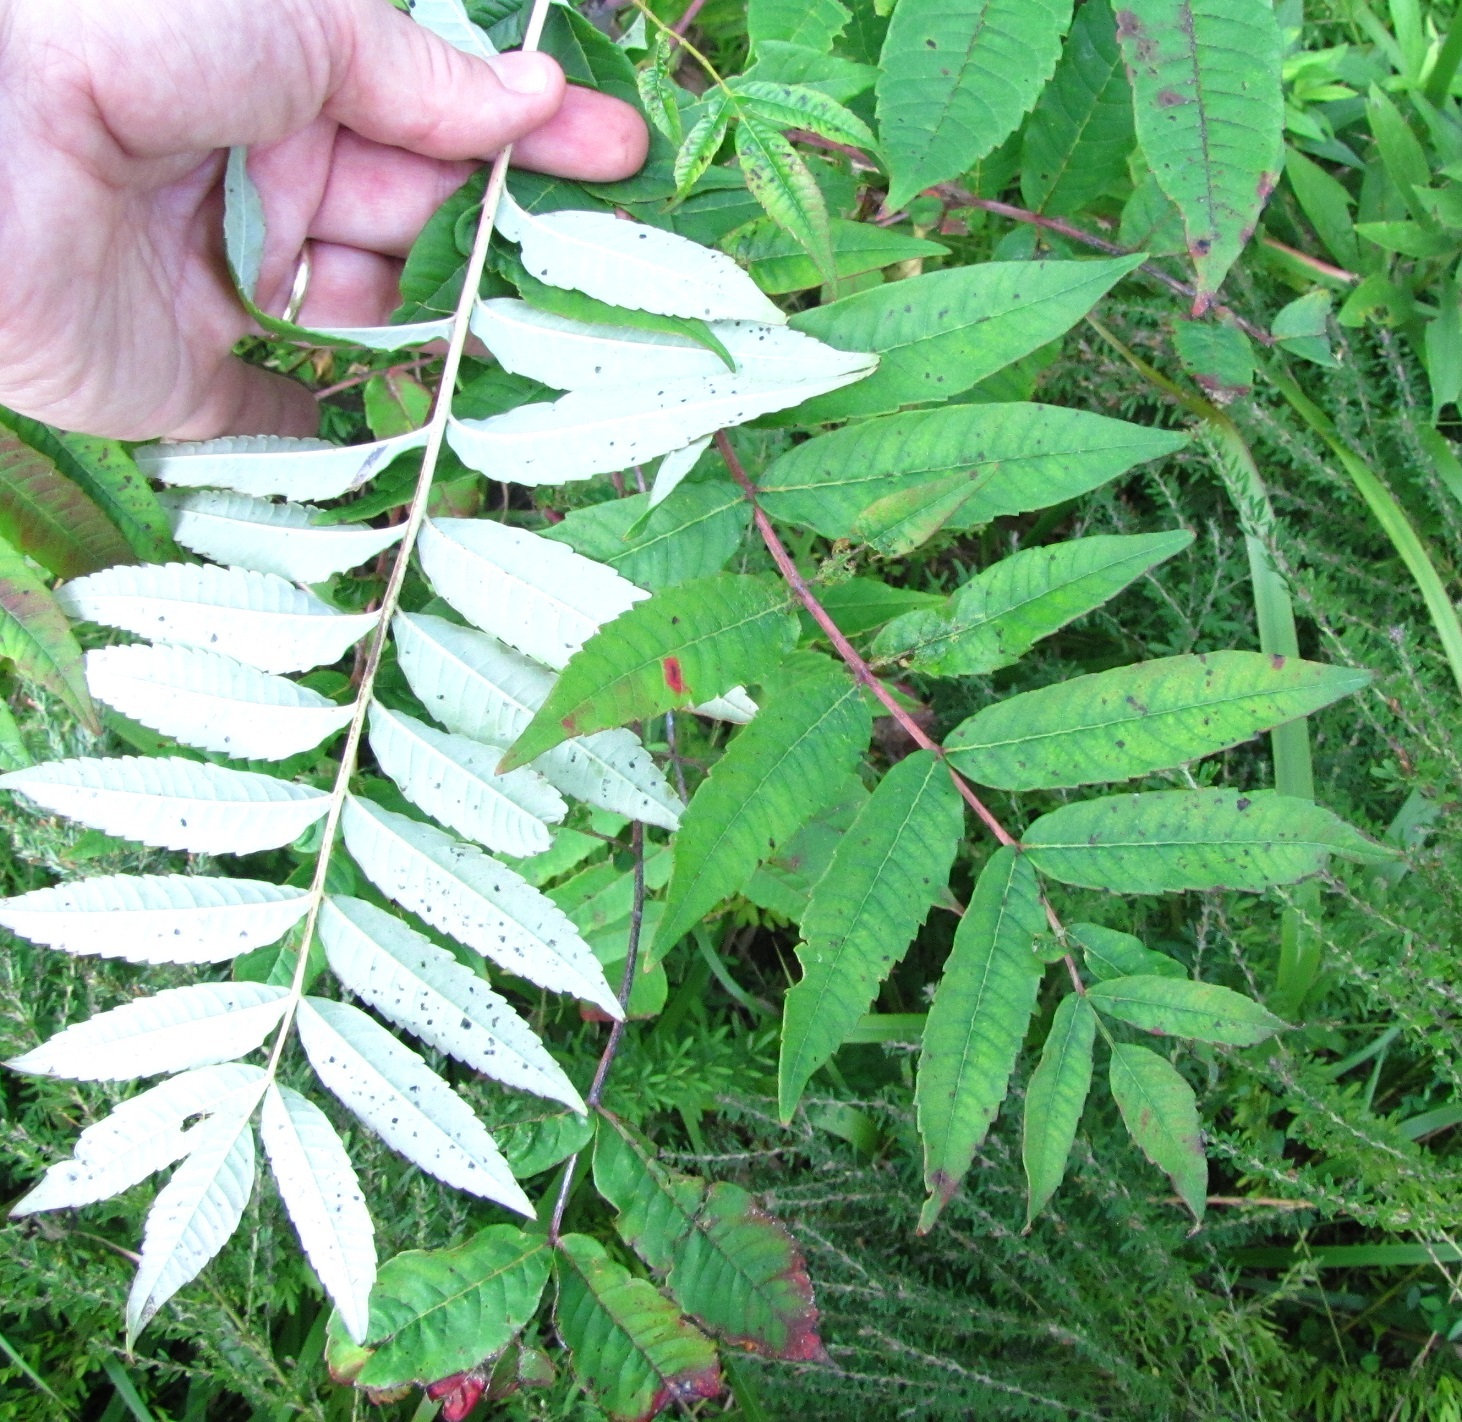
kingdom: Plantae
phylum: Tracheophyta
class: Magnoliopsida
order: Sapindales
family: Anacardiaceae
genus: Rhus
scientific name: Rhus glabra
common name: Scarlet sumac
